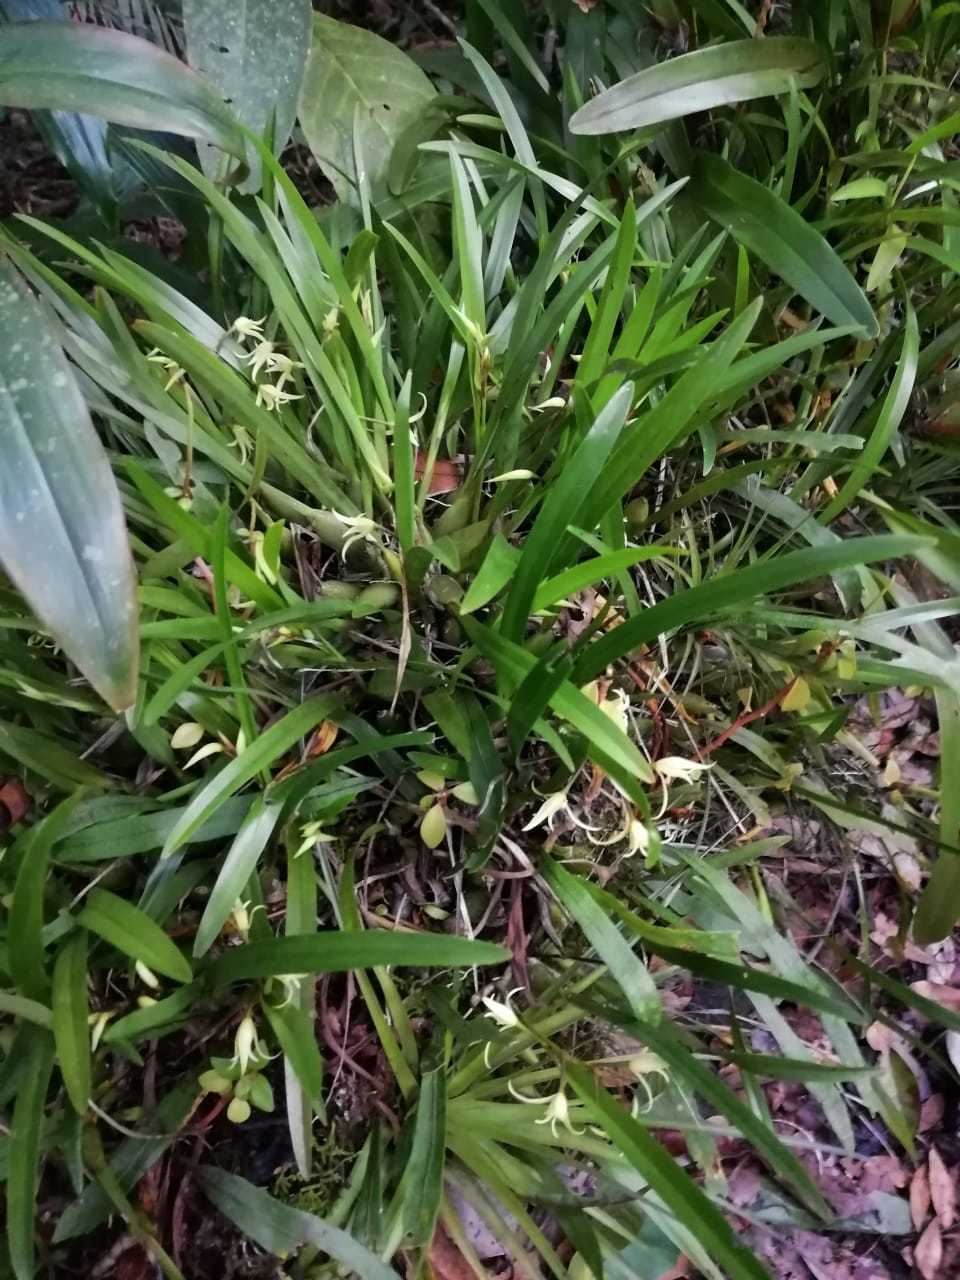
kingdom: Plantae
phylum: Tracheophyta
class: Liliopsida
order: Asparagales
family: Orchidaceae
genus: Nidema
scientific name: Nidema boothii
